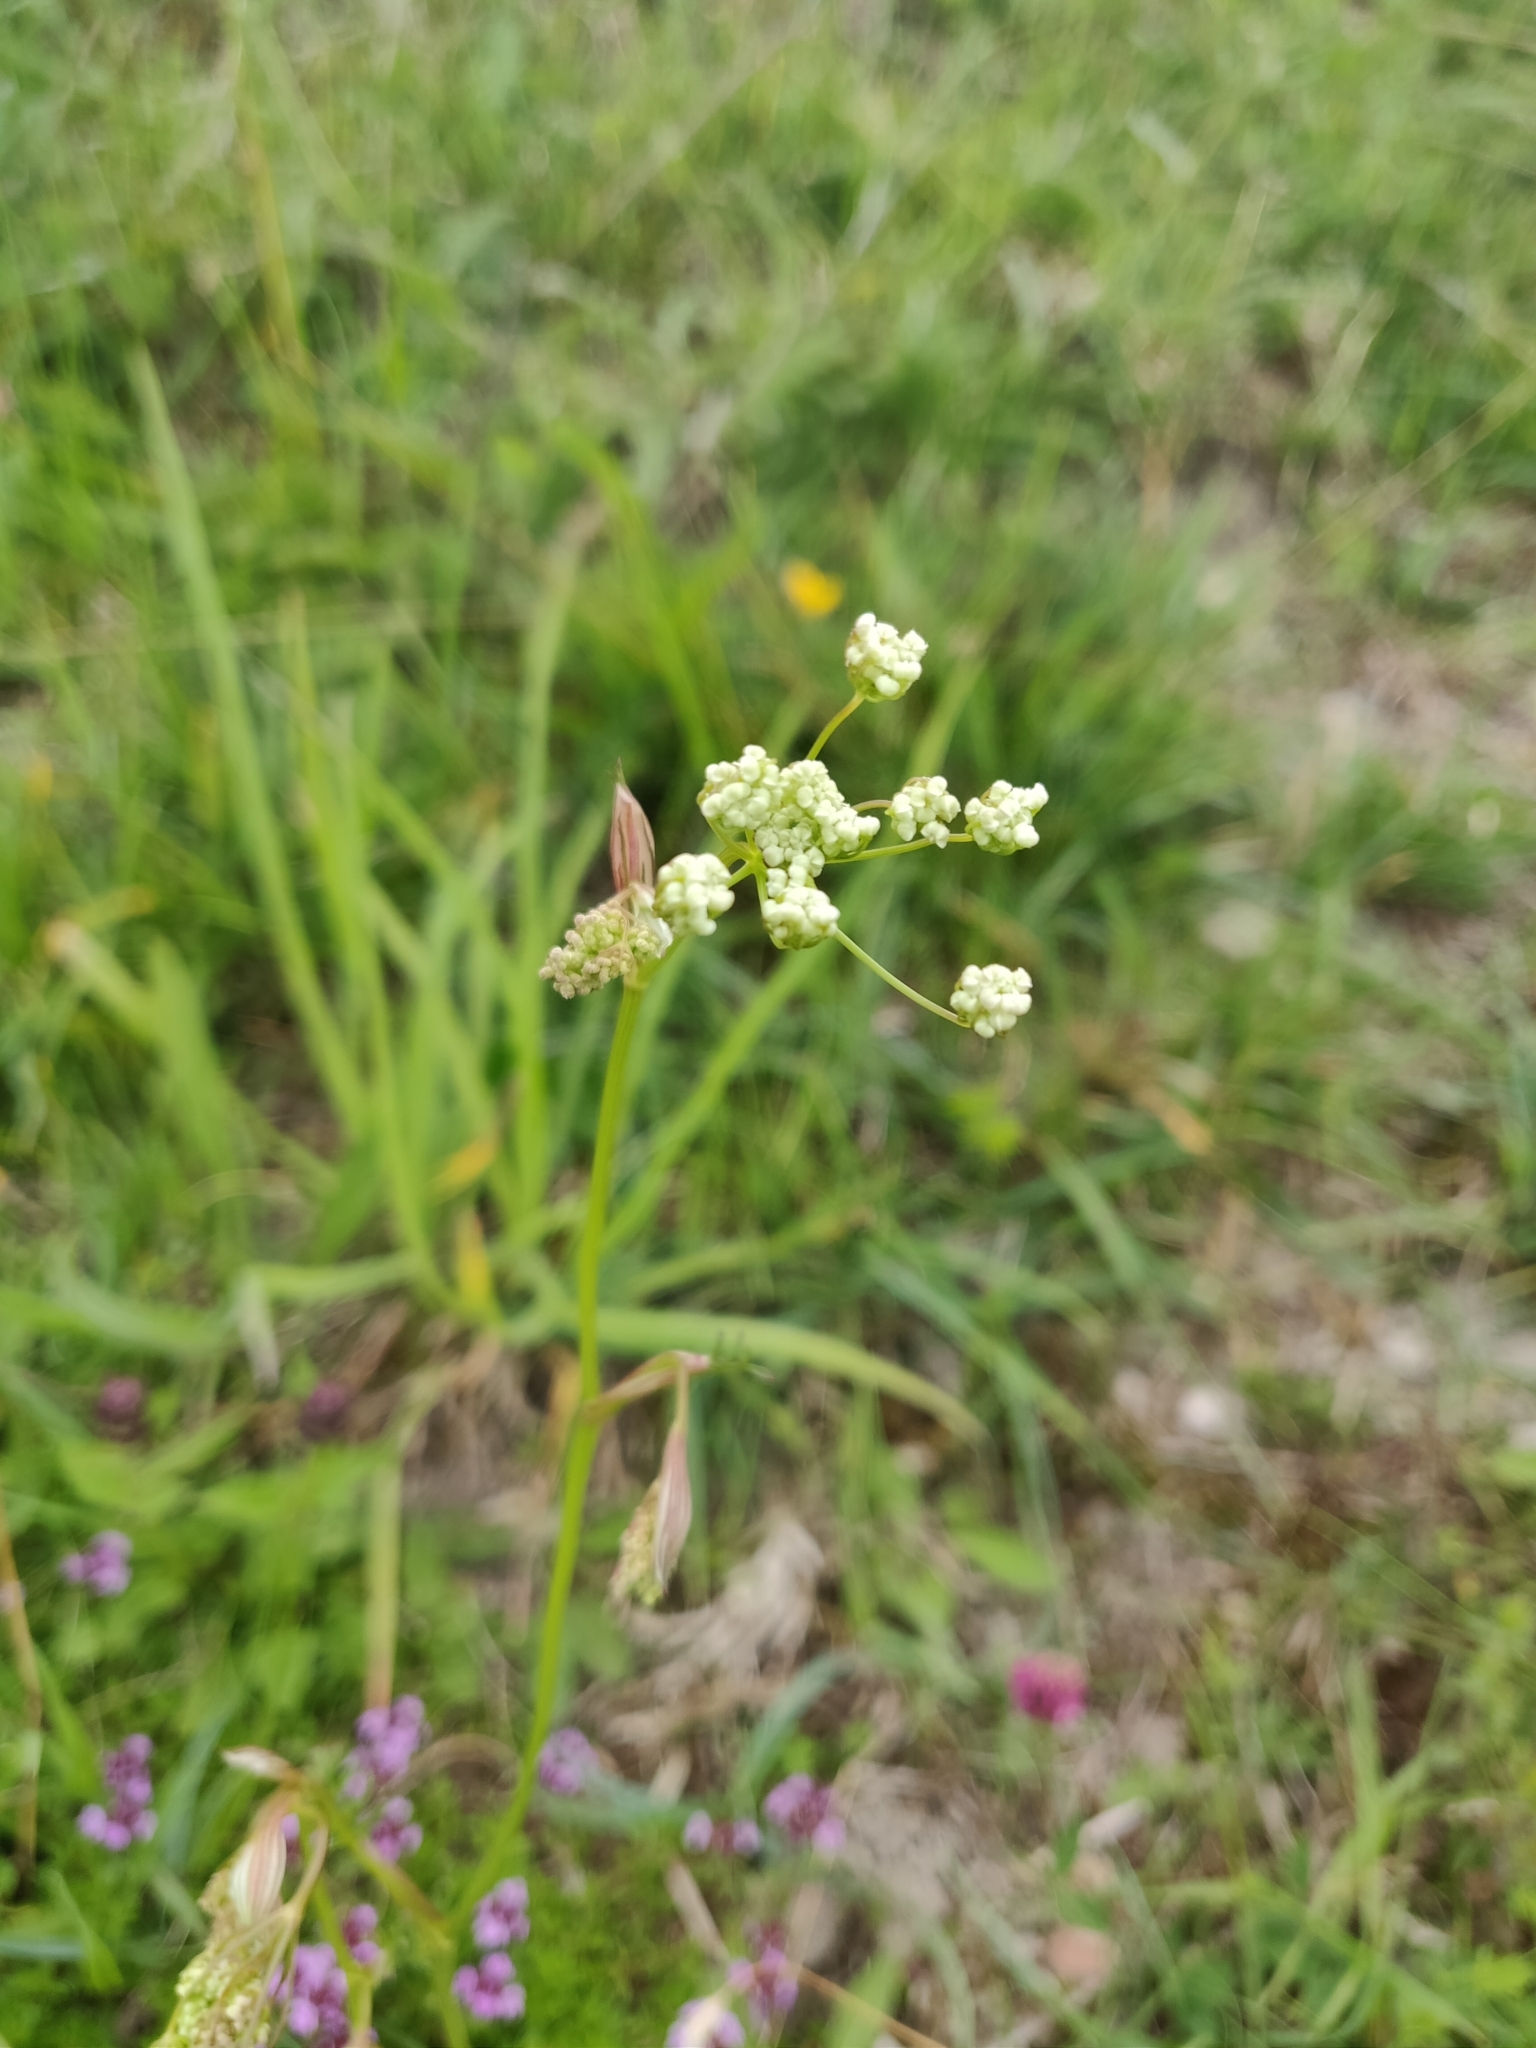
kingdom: Plantae
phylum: Tracheophyta
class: Magnoliopsida
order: Apiales
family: Apiaceae
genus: Pimpinella
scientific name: Pimpinella saxifraga
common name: Burnet-saxifrage
